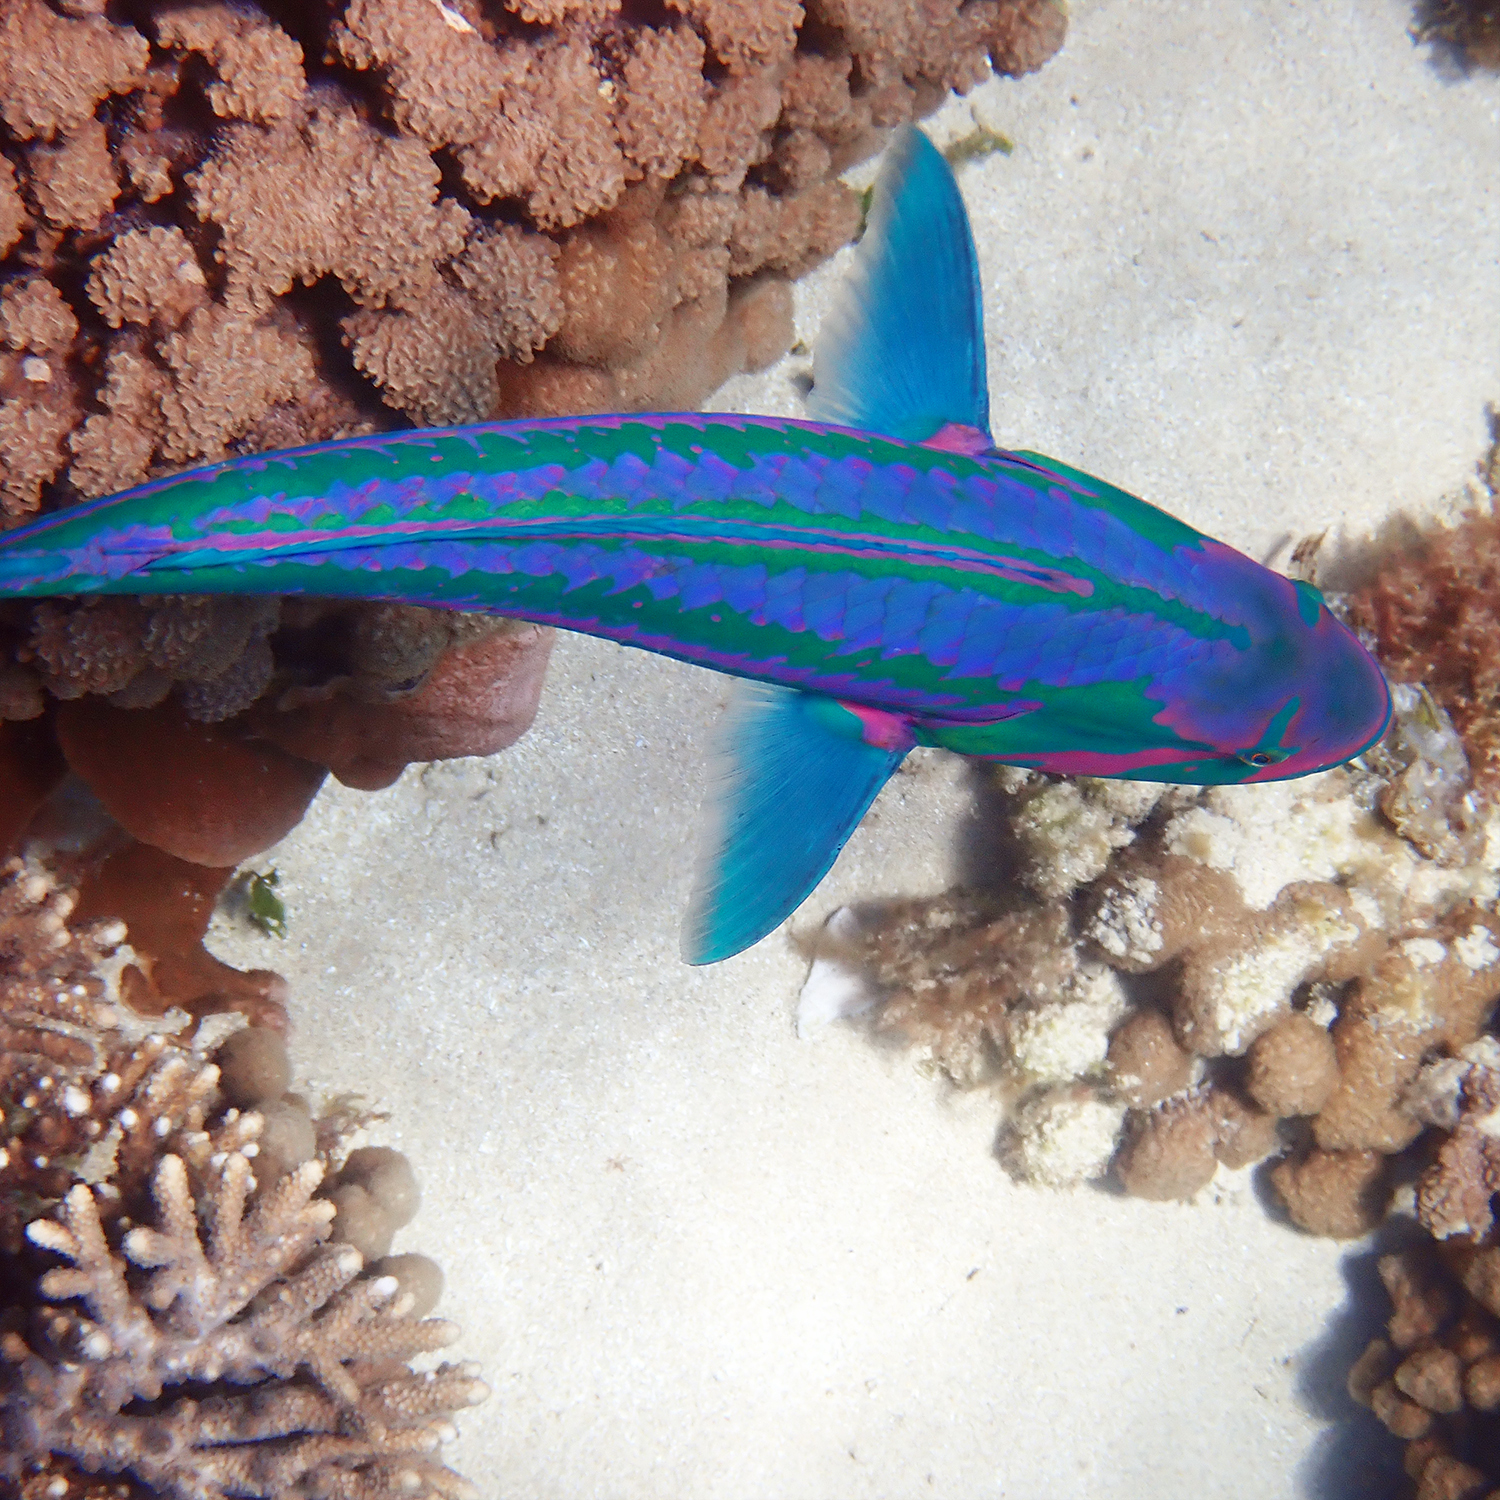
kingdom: Animalia
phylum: Chordata
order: Perciformes
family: Labridae
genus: Thalassoma
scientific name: Thalassoma purpureum
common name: Parrotfish
